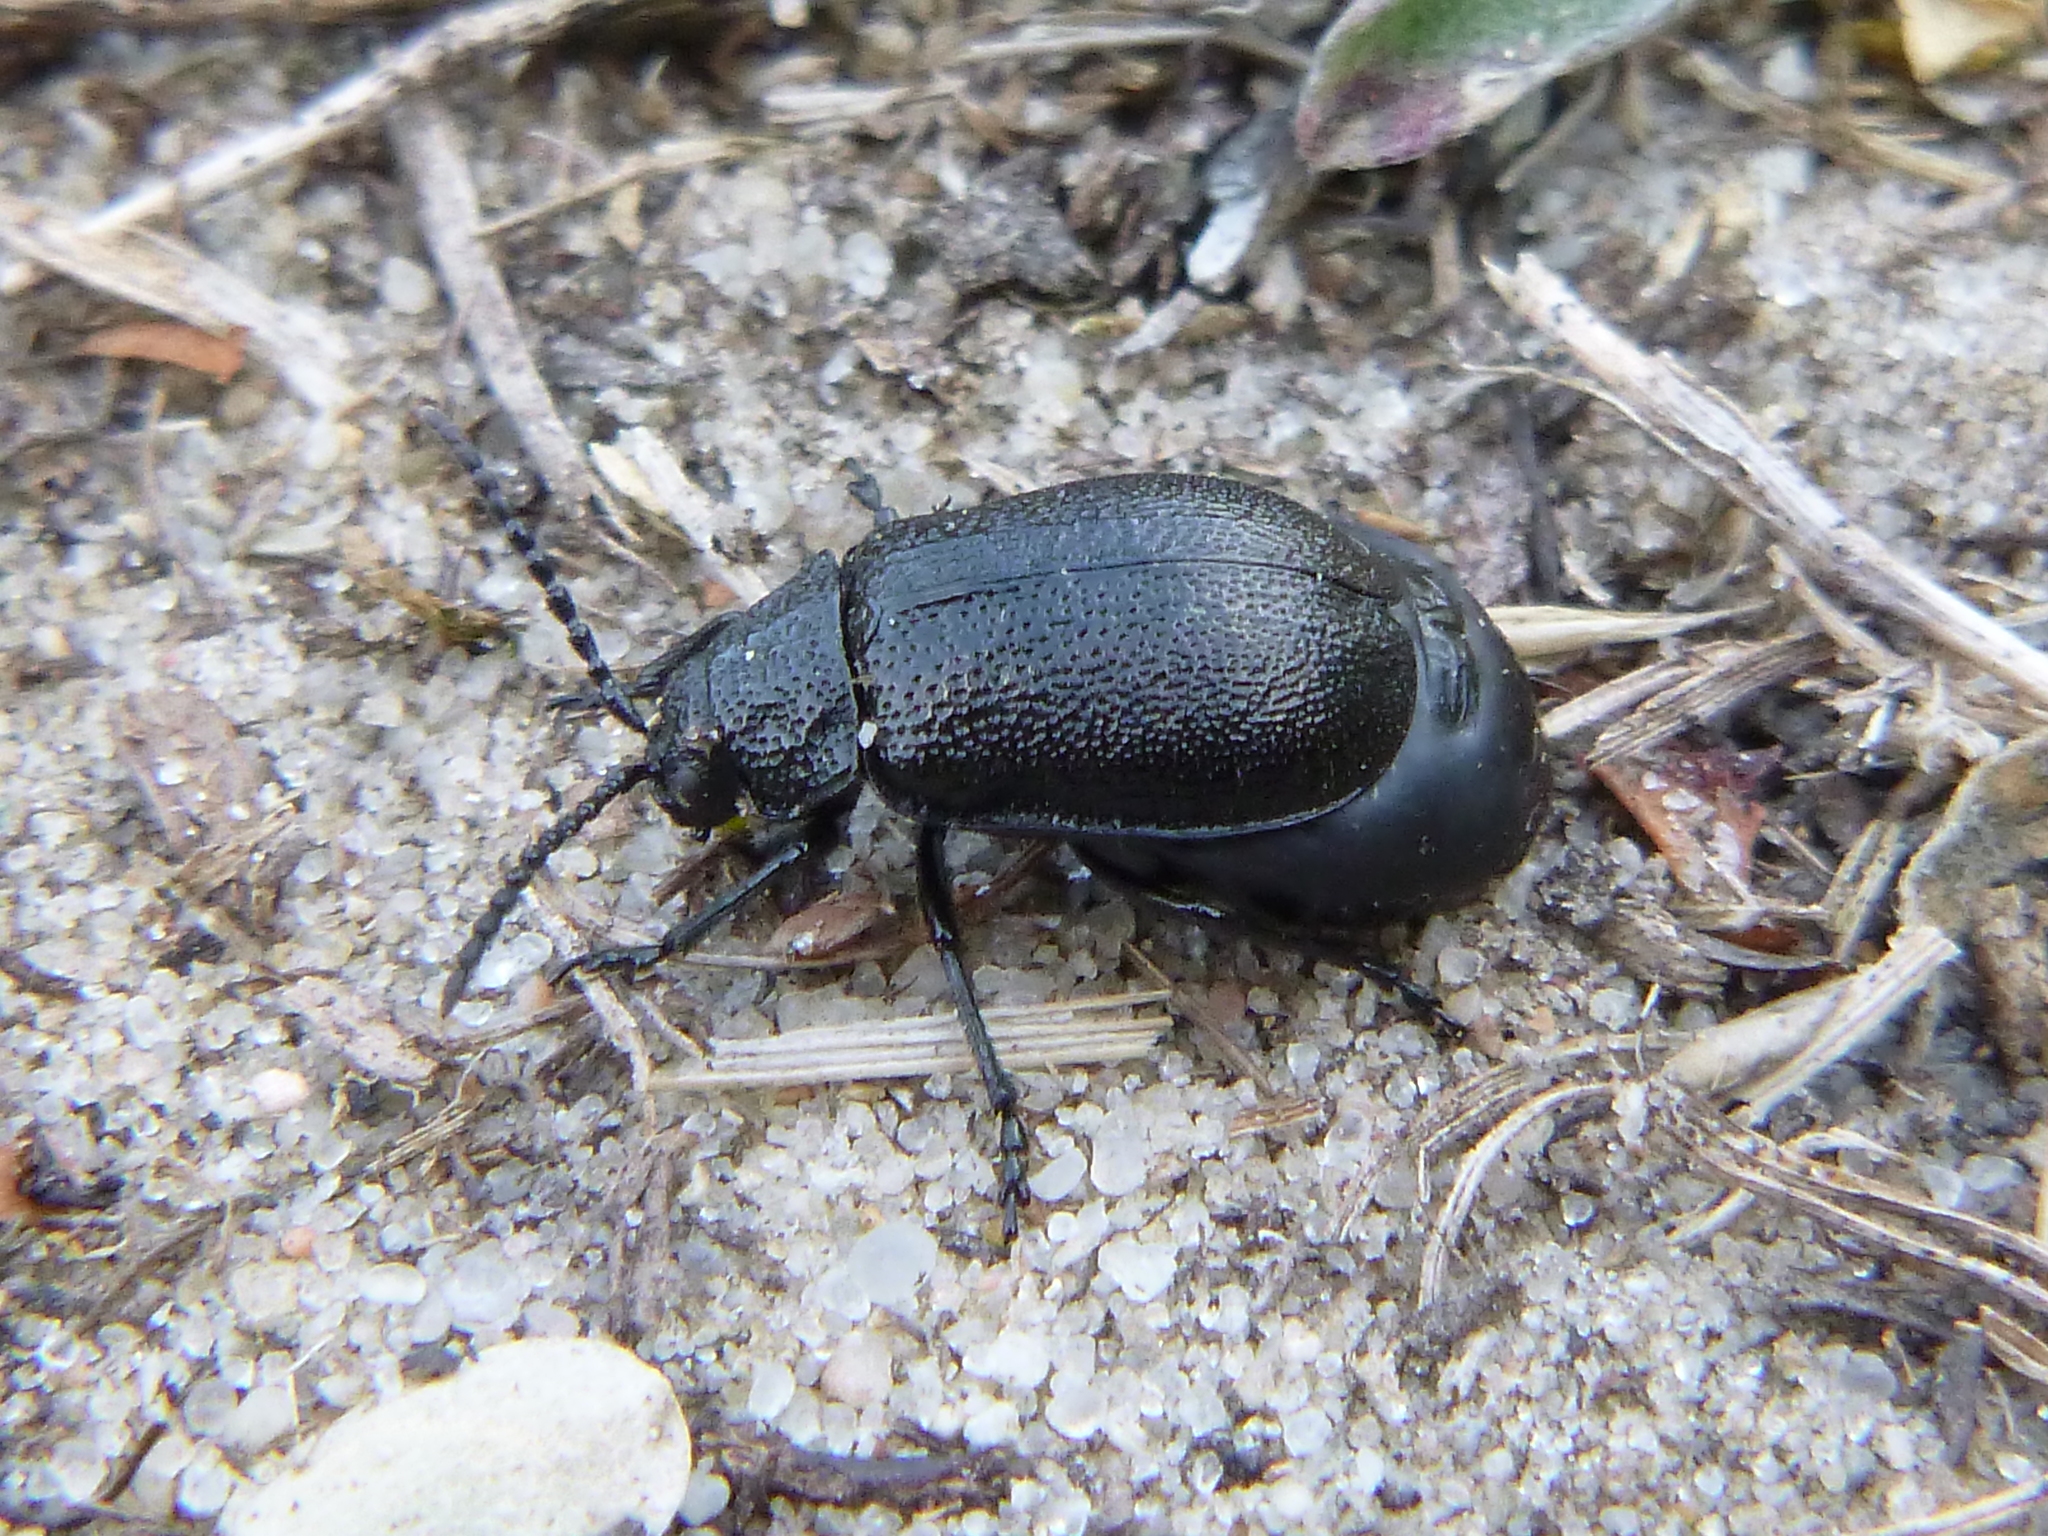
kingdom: Animalia
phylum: Arthropoda
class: Insecta
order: Coleoptera
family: Chrysomelidae
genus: Galeruca
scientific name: Galeruca tanaceti
